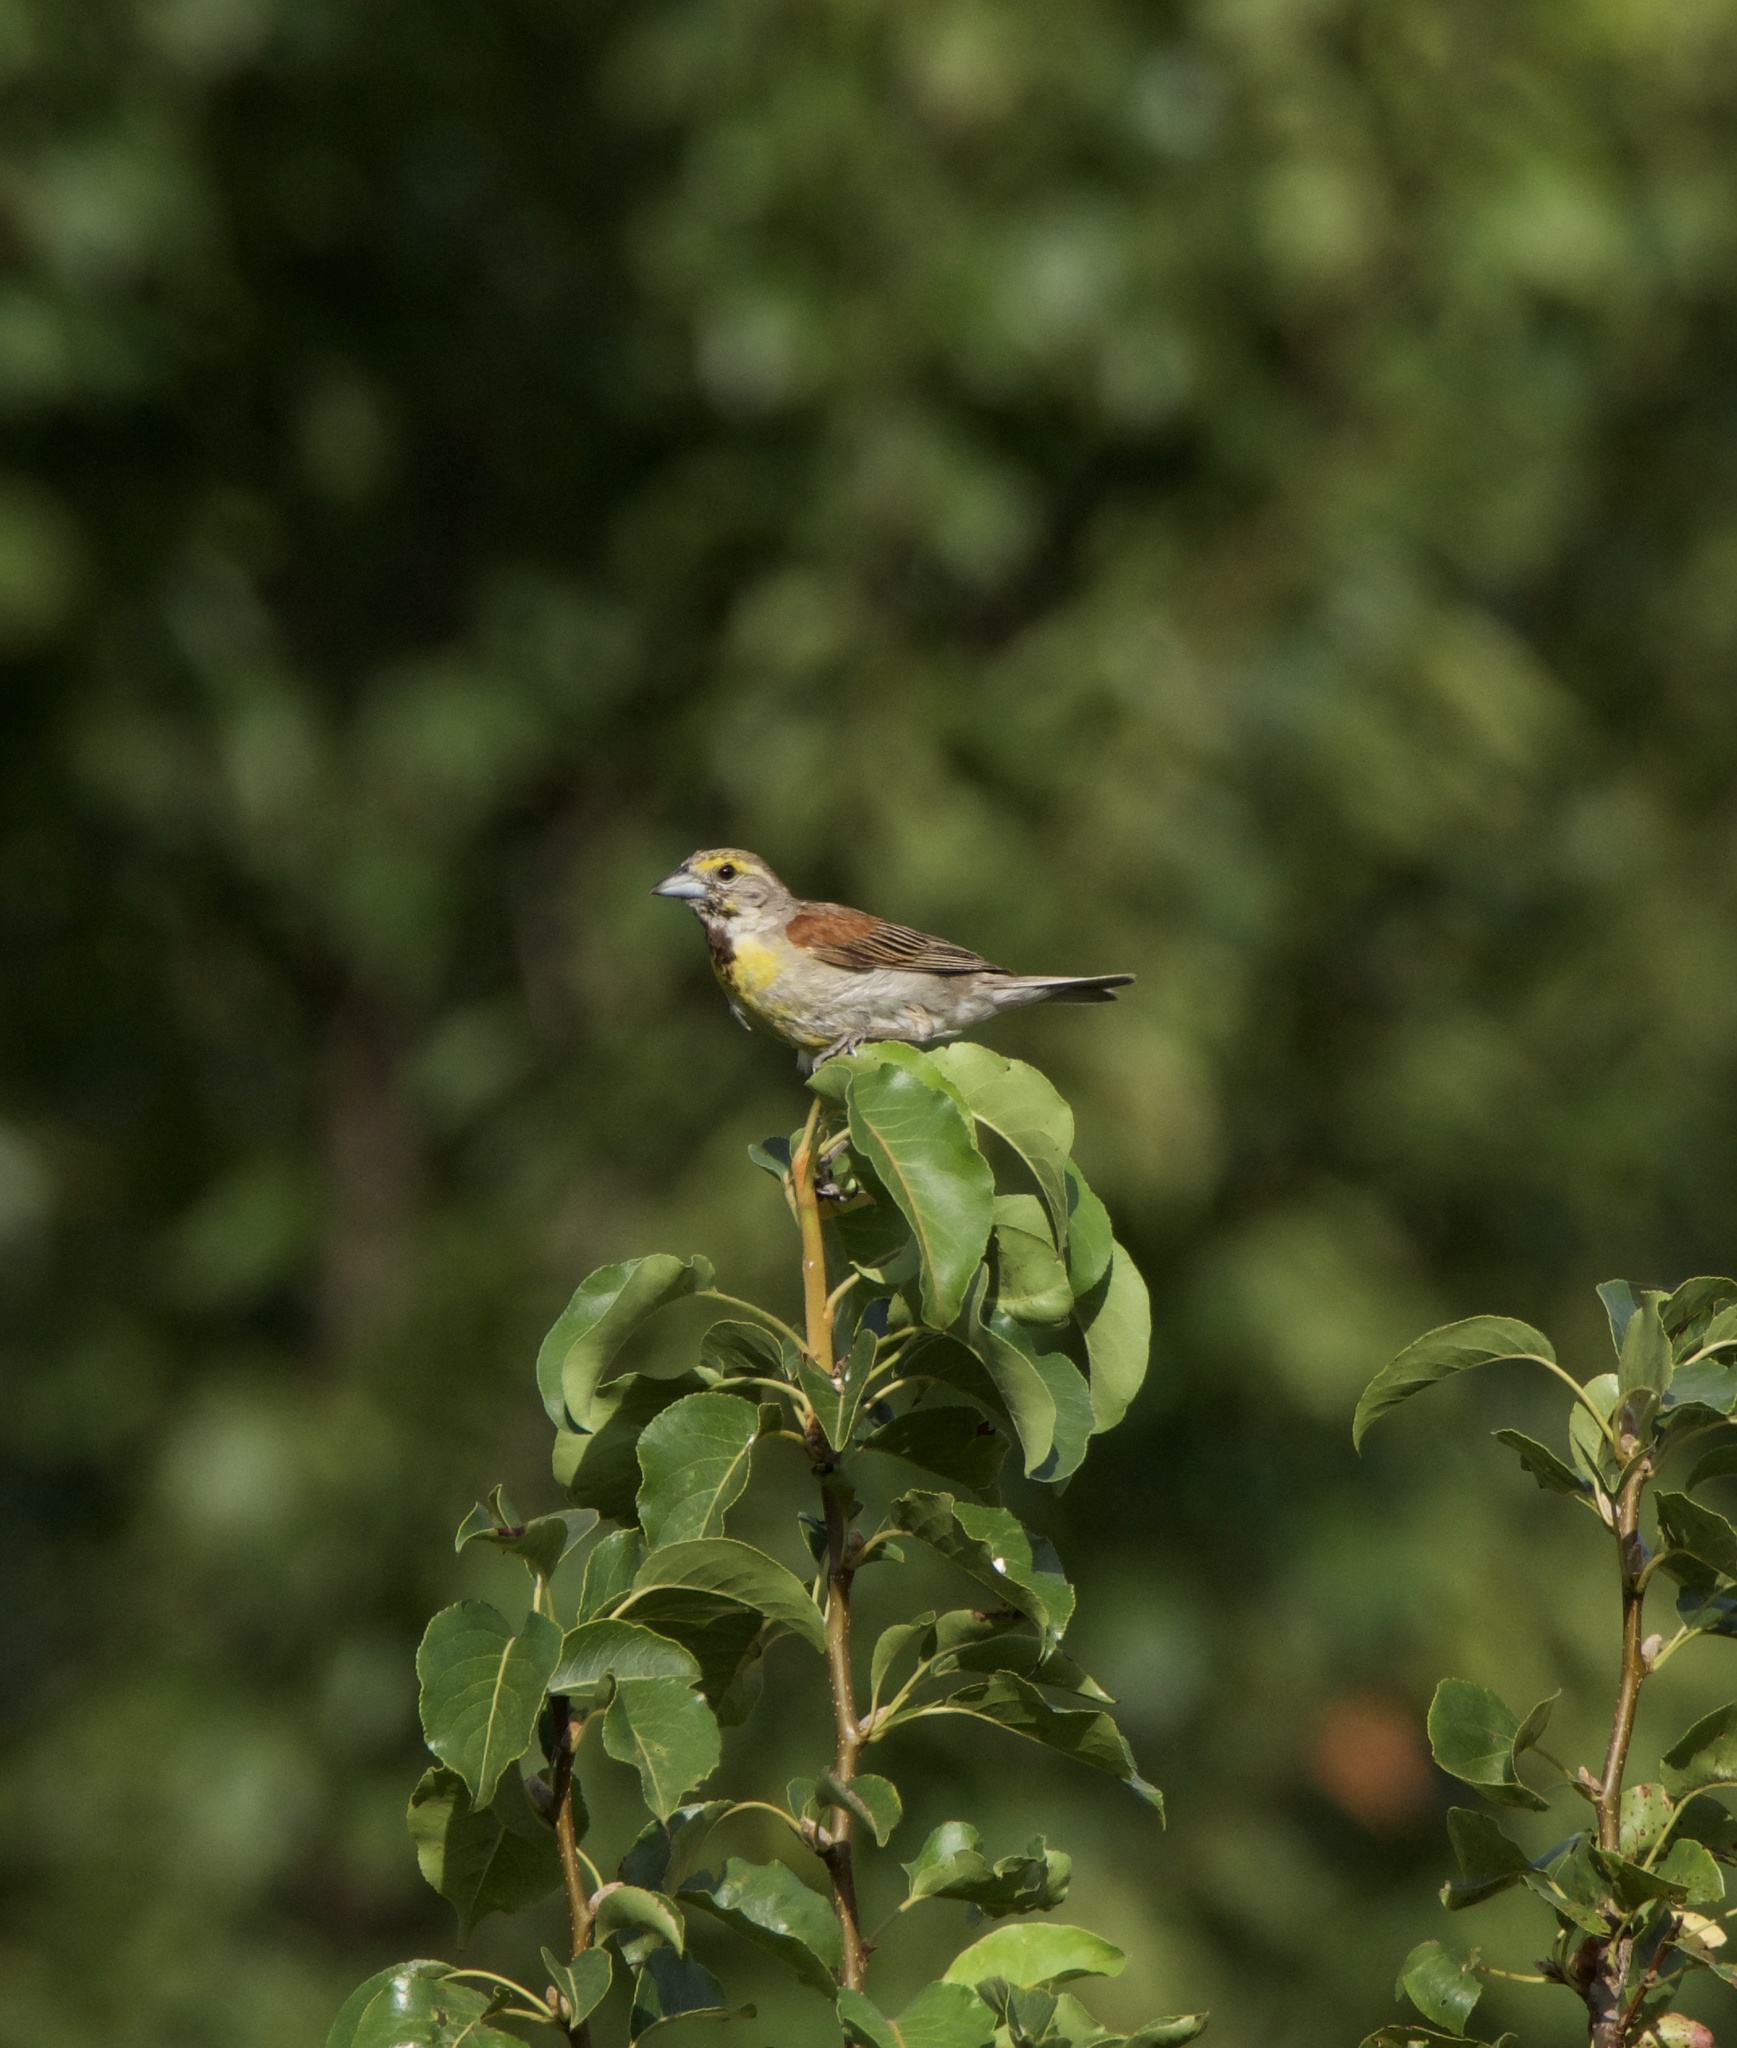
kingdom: Animalia
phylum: Chordata
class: Aves
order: Passeriformes
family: Cardinalidae
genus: Spiza
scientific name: Spiza americana
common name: Dickcissel
